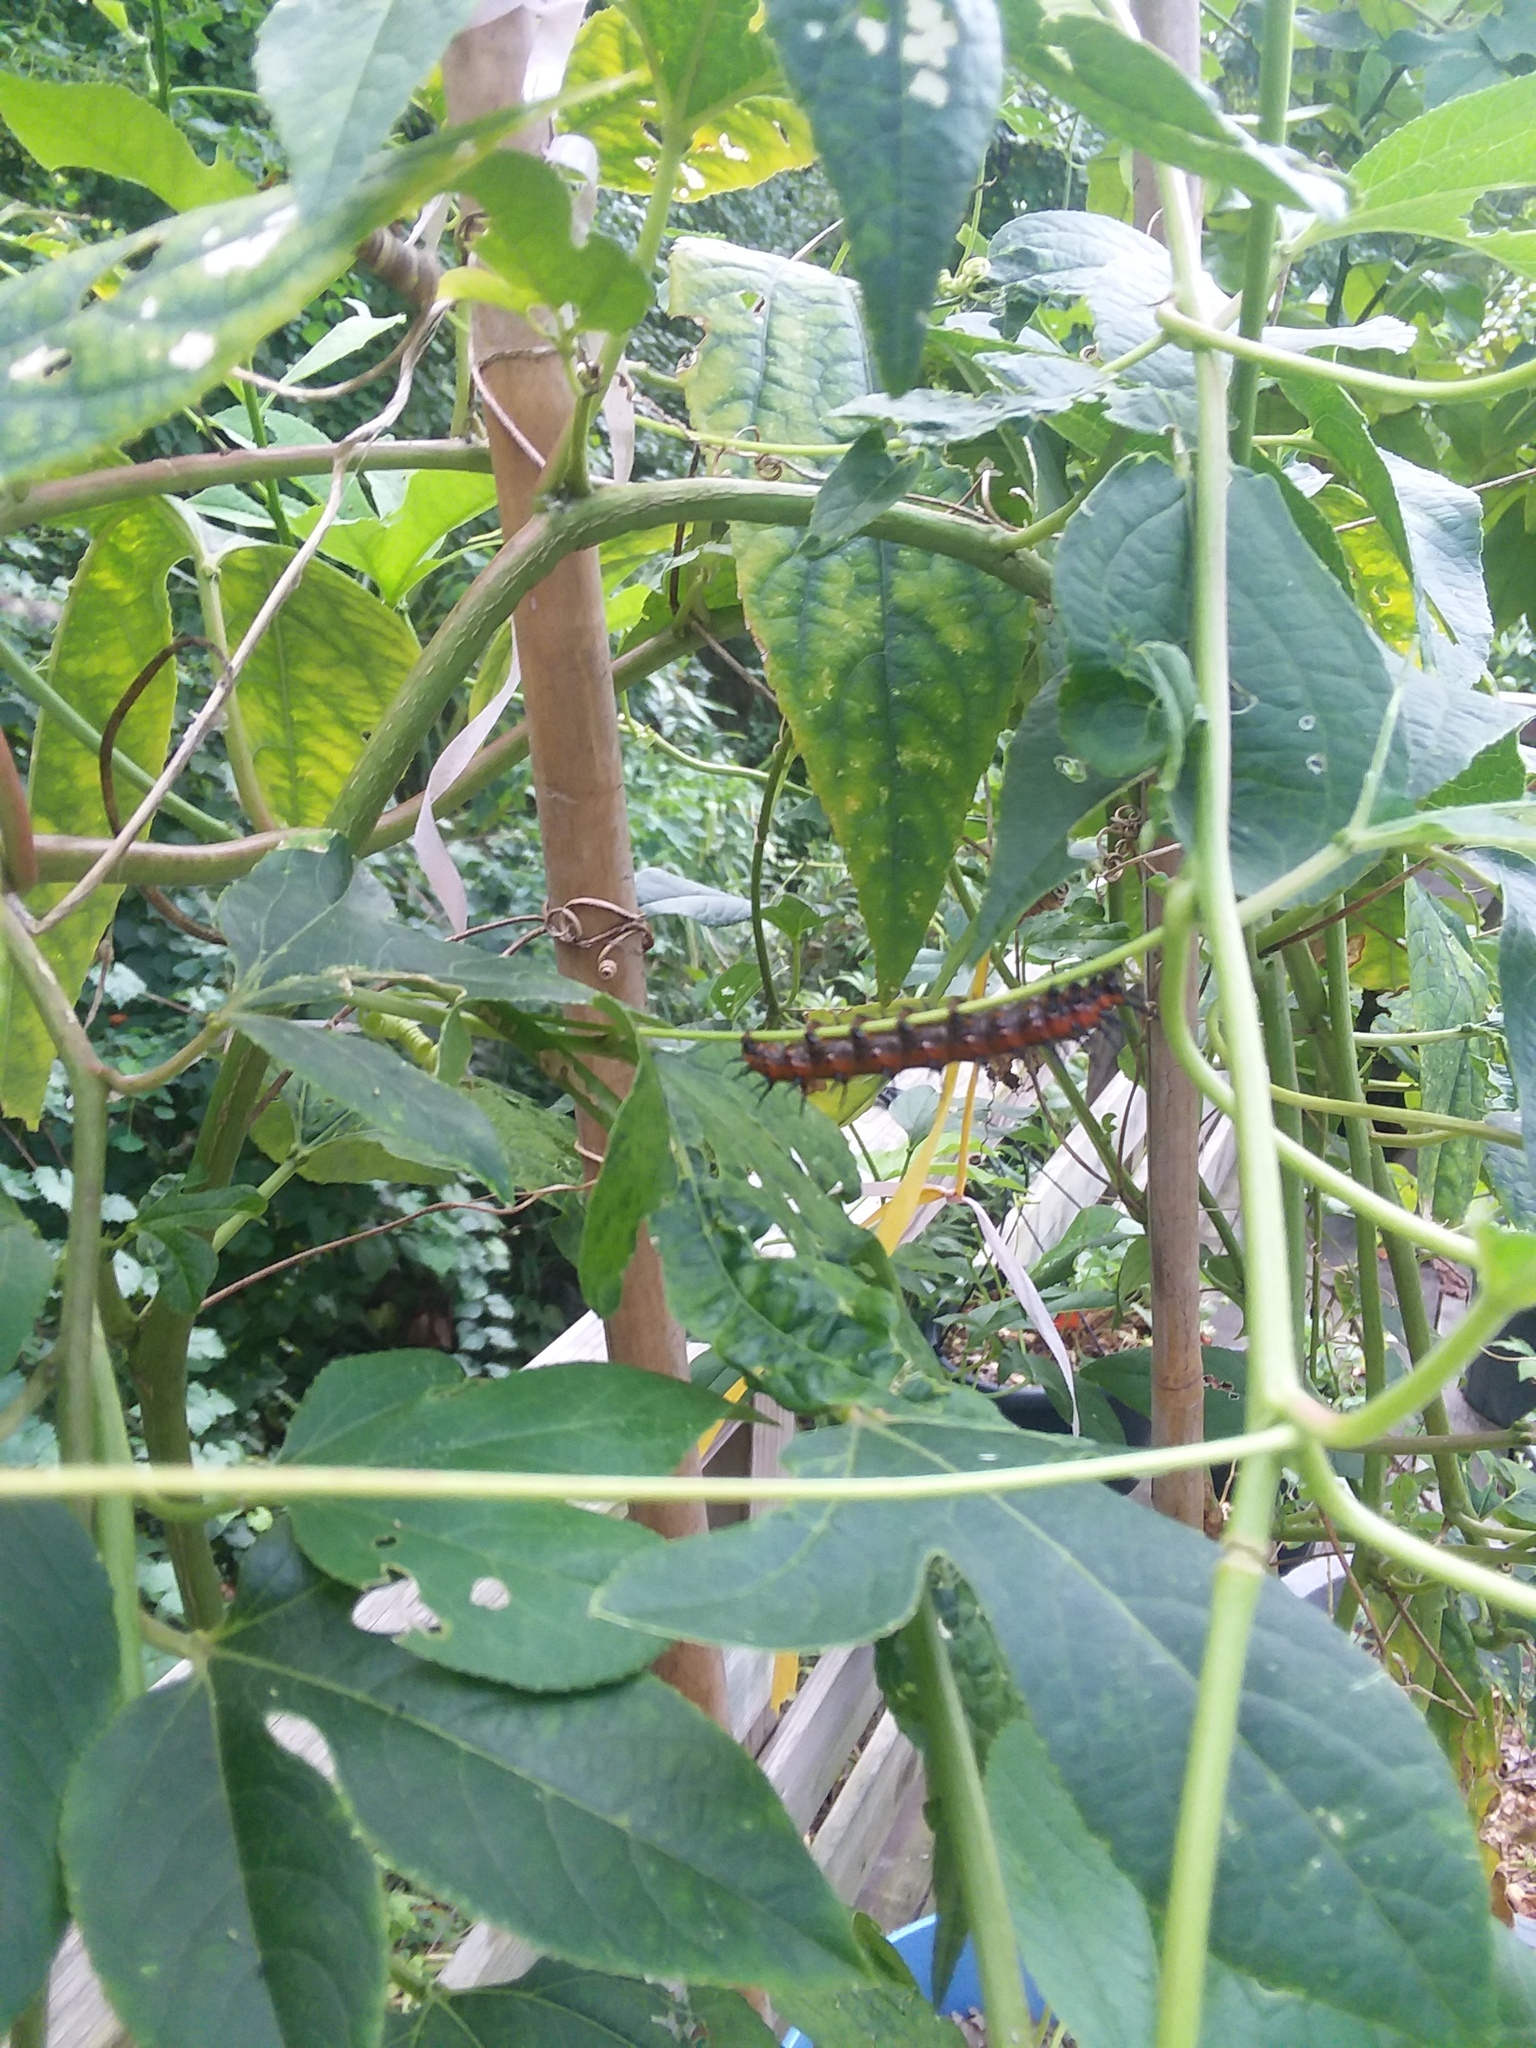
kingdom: Animalia
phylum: Arthropoda
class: Insecta
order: Lepidoptera
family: Nymphalidae
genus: Dione
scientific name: Dione vanillae
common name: Gulf fritillary
